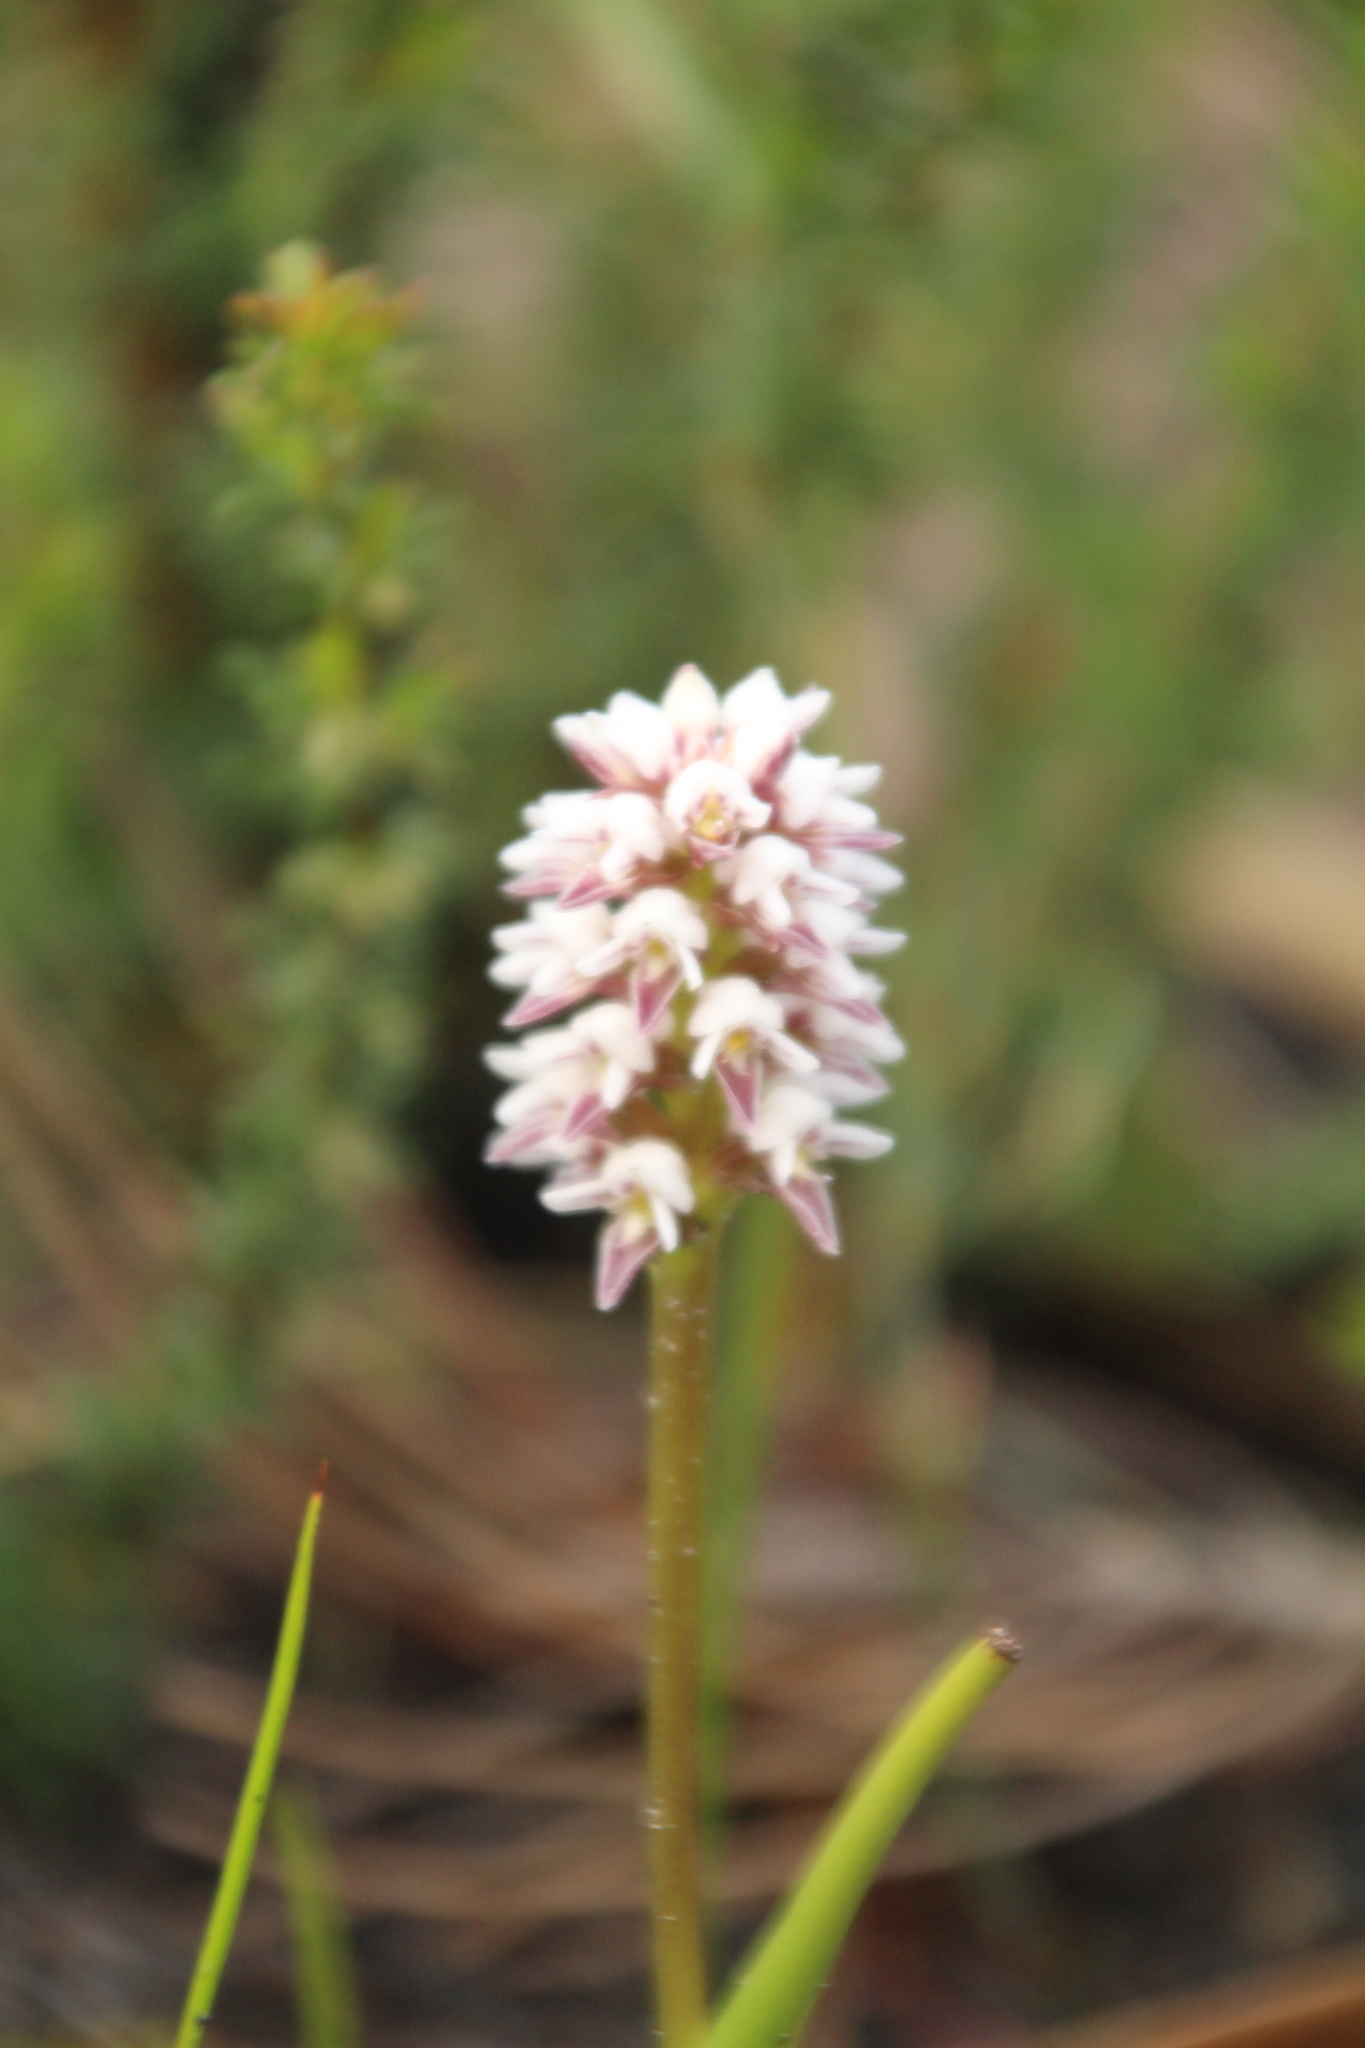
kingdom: Plantae
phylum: Tracheophyta
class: Liliopsida
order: Asparagales
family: Orchidaceae
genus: Prasophyllum
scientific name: Prasophyllum gibbosum
